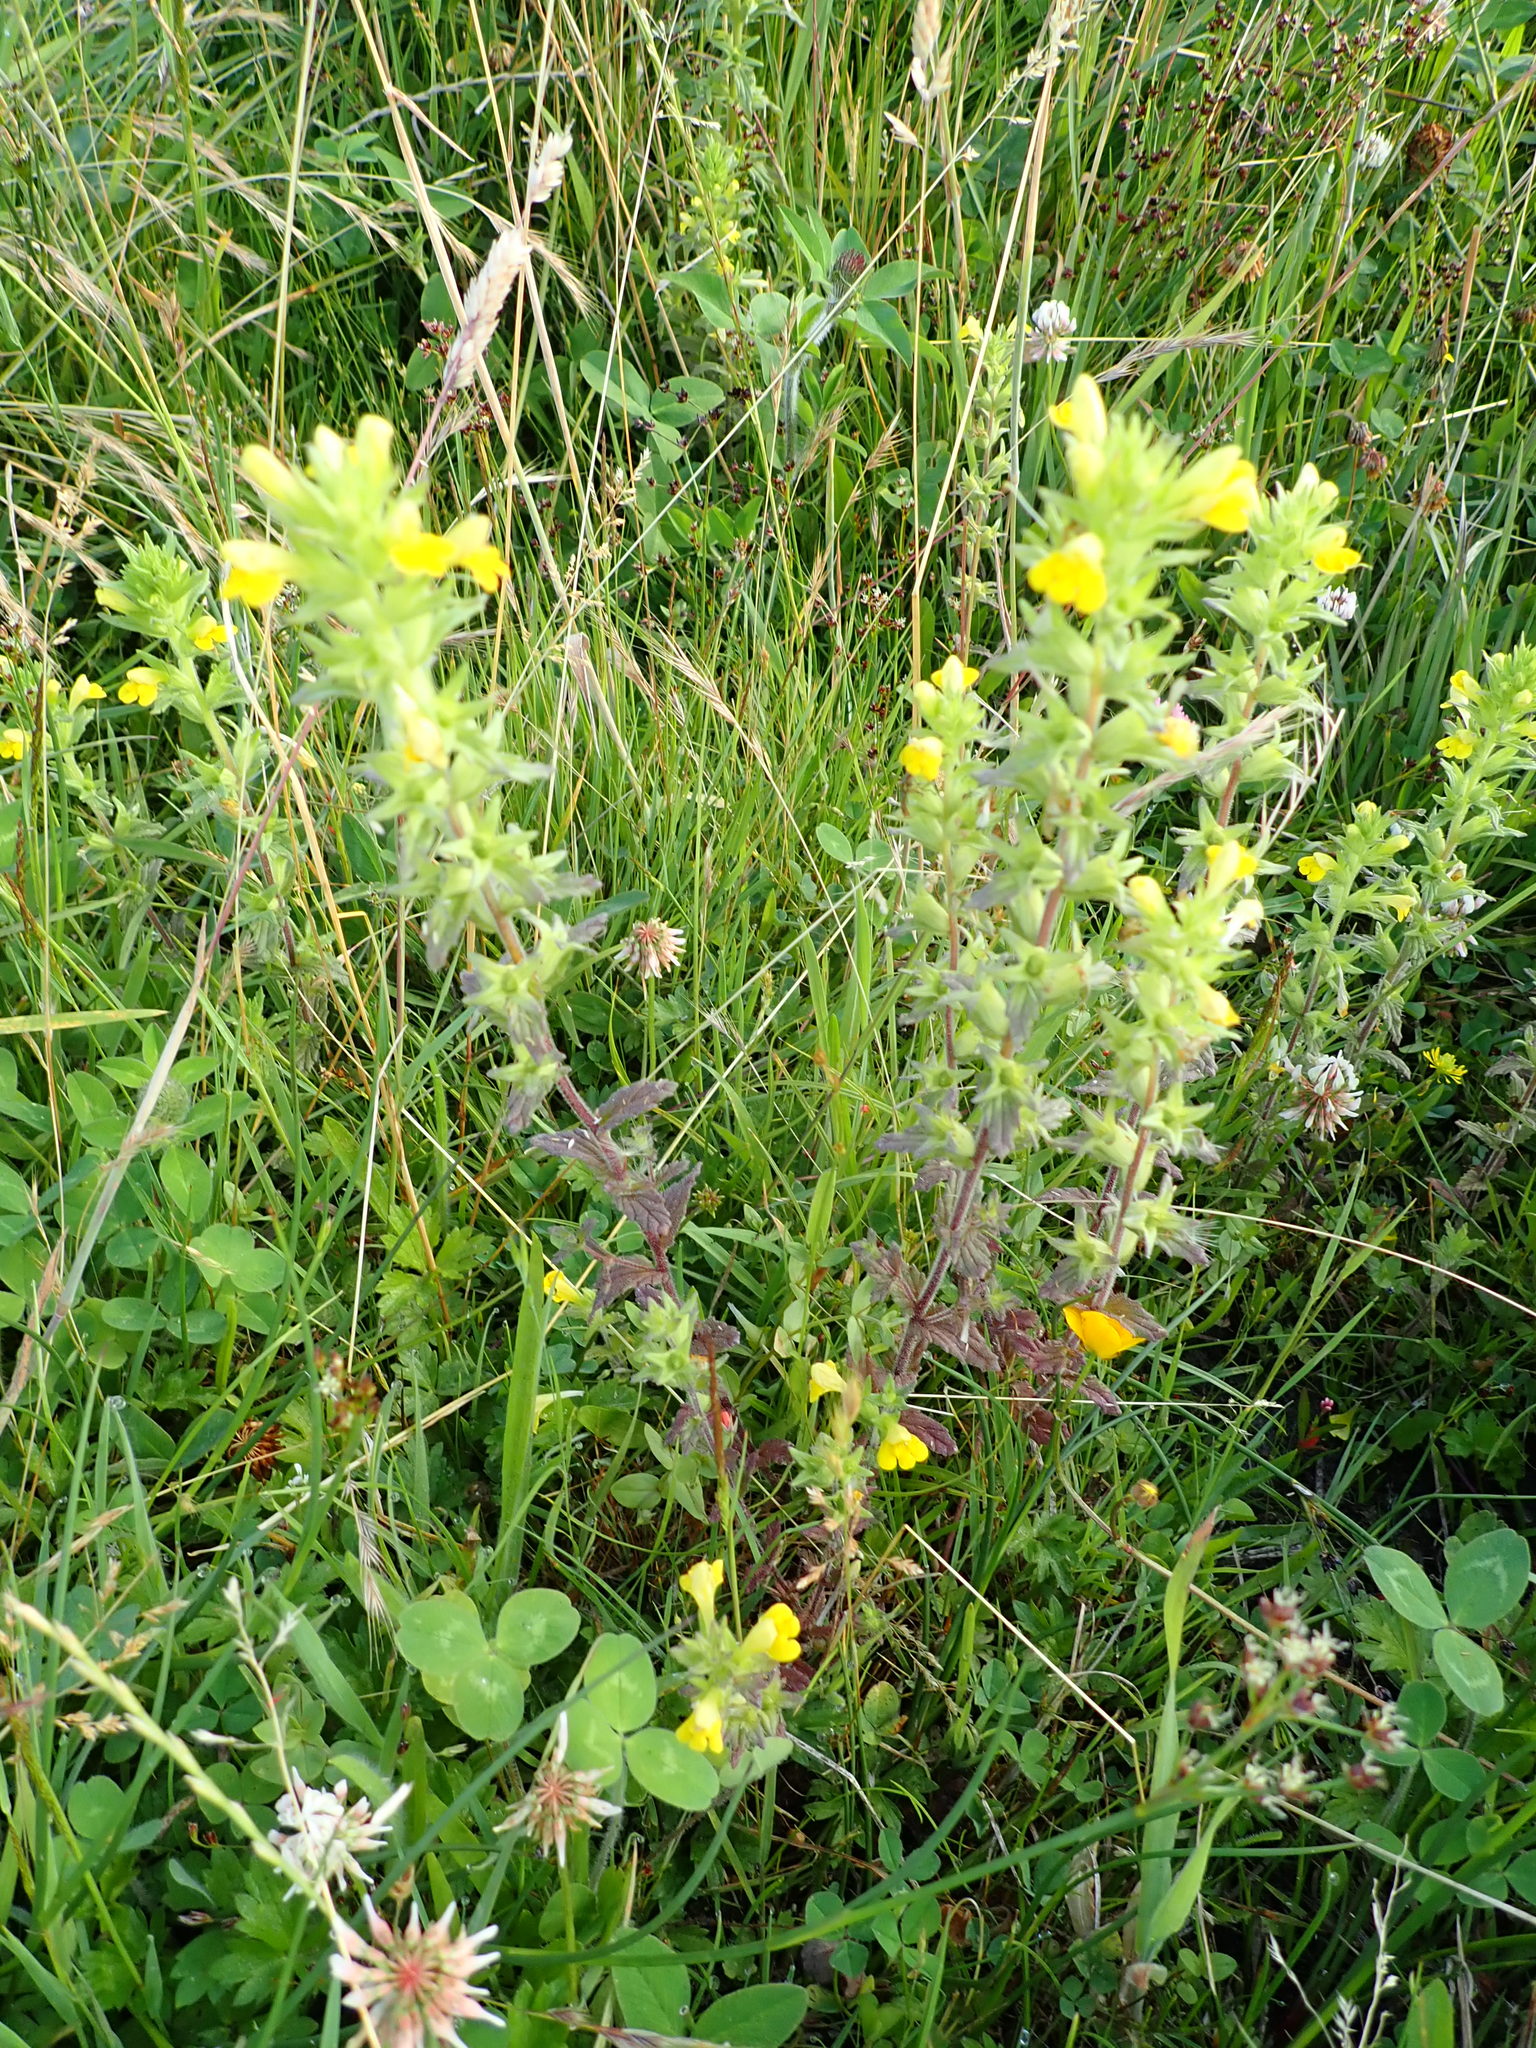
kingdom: Plantae
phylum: Tracheophyta
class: Magnoliopsida
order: Lamiales
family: Orobanchaceae
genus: Bellardia
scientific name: Bellardia viscosa
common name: Sticky parentucellia
